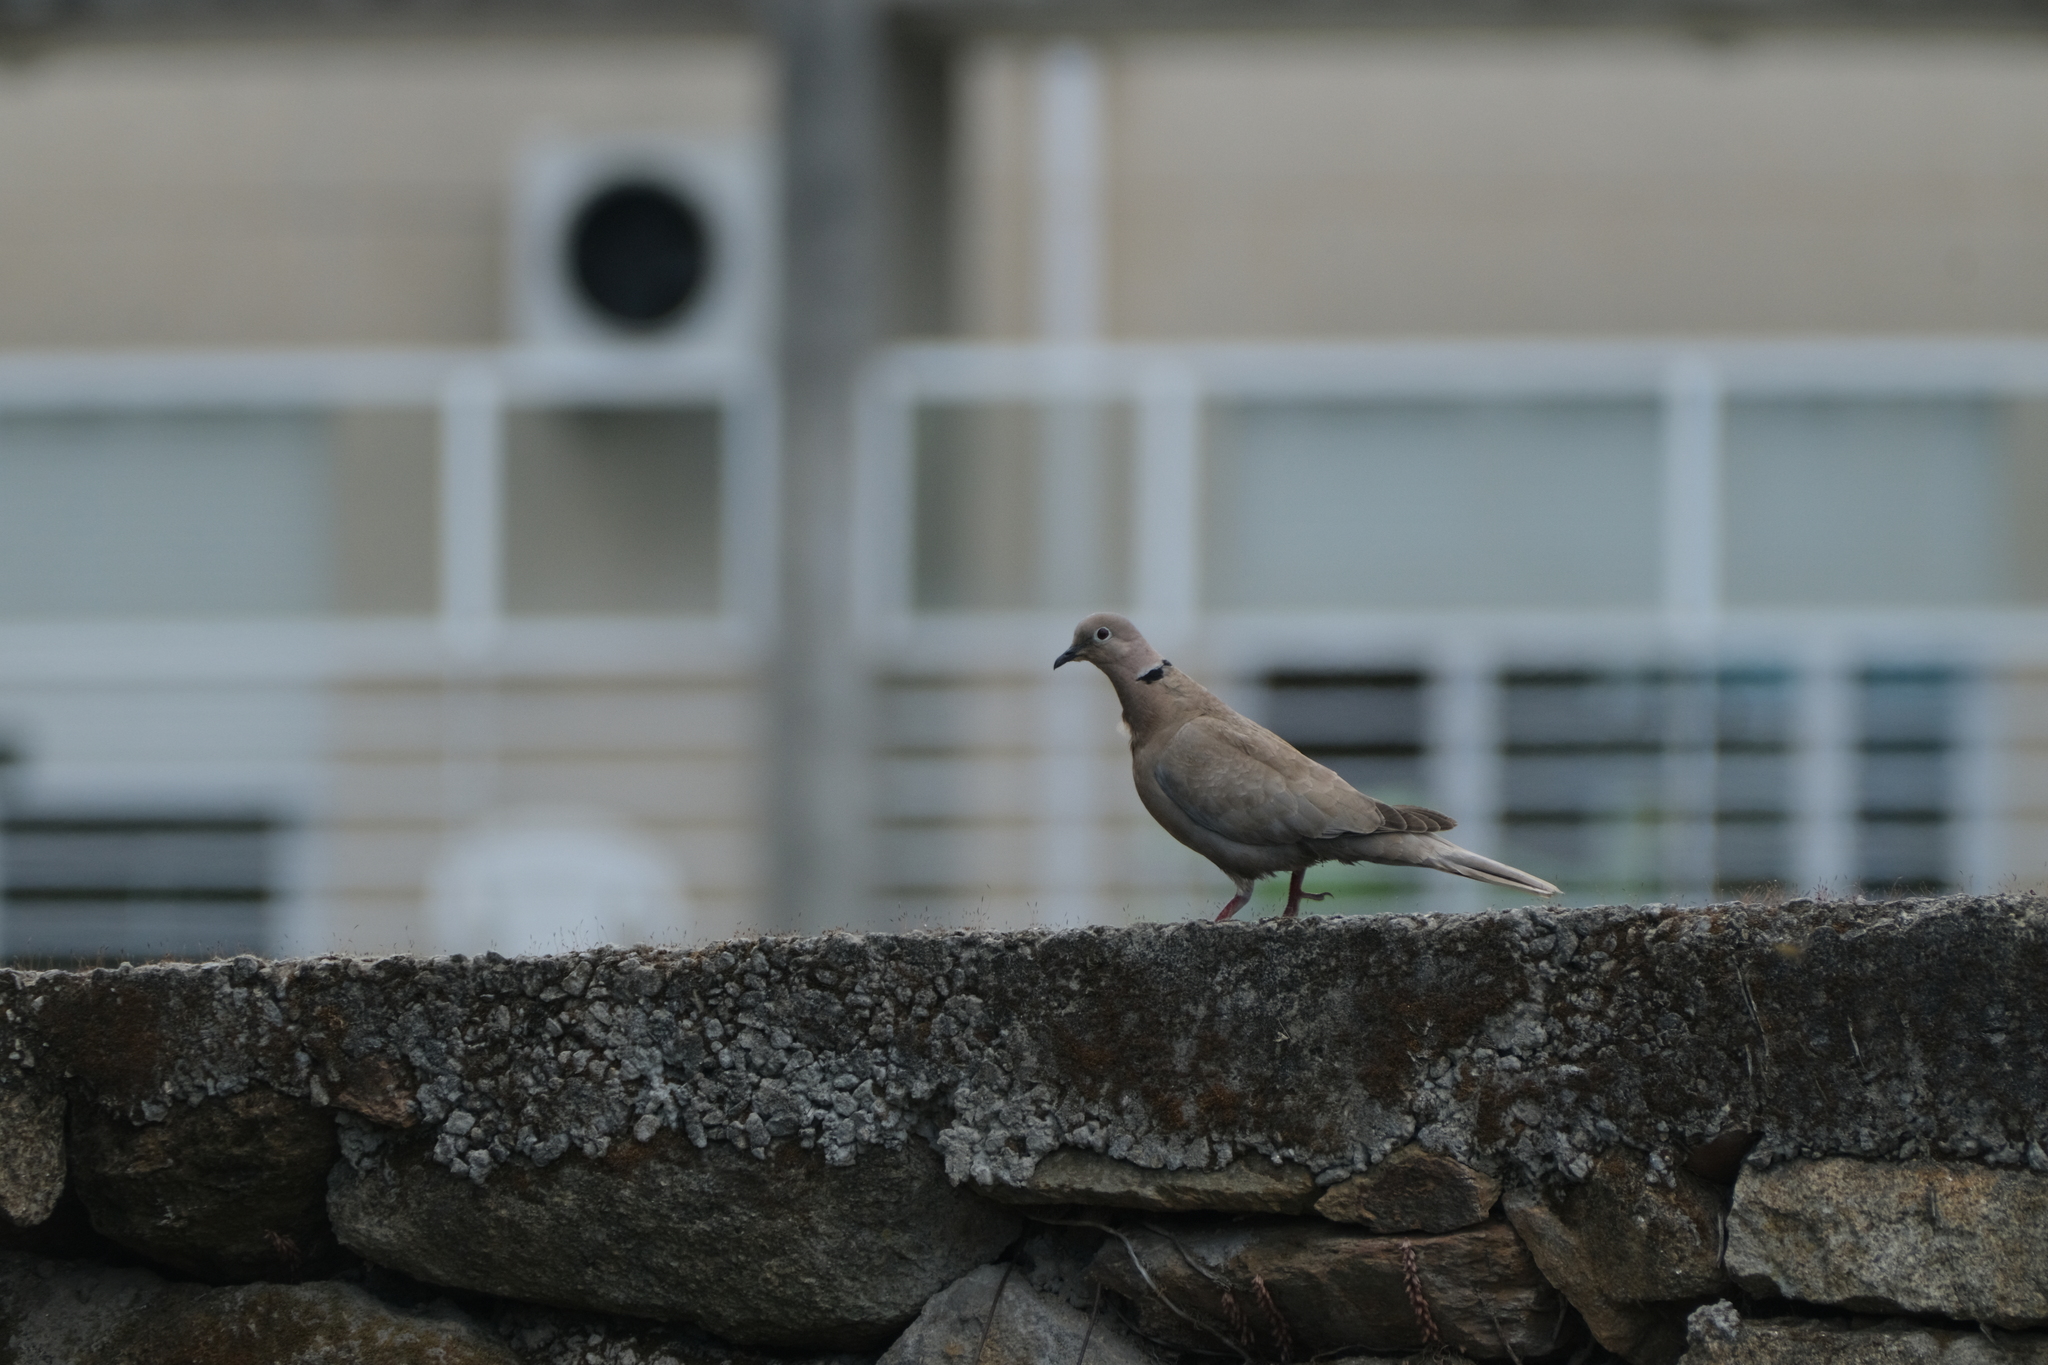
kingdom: Animalia
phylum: Chordata
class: Aves
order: Columbiformes
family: Columbidae
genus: Streptopelia
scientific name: Streptopelia decaocto
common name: Eurasian collared dove
